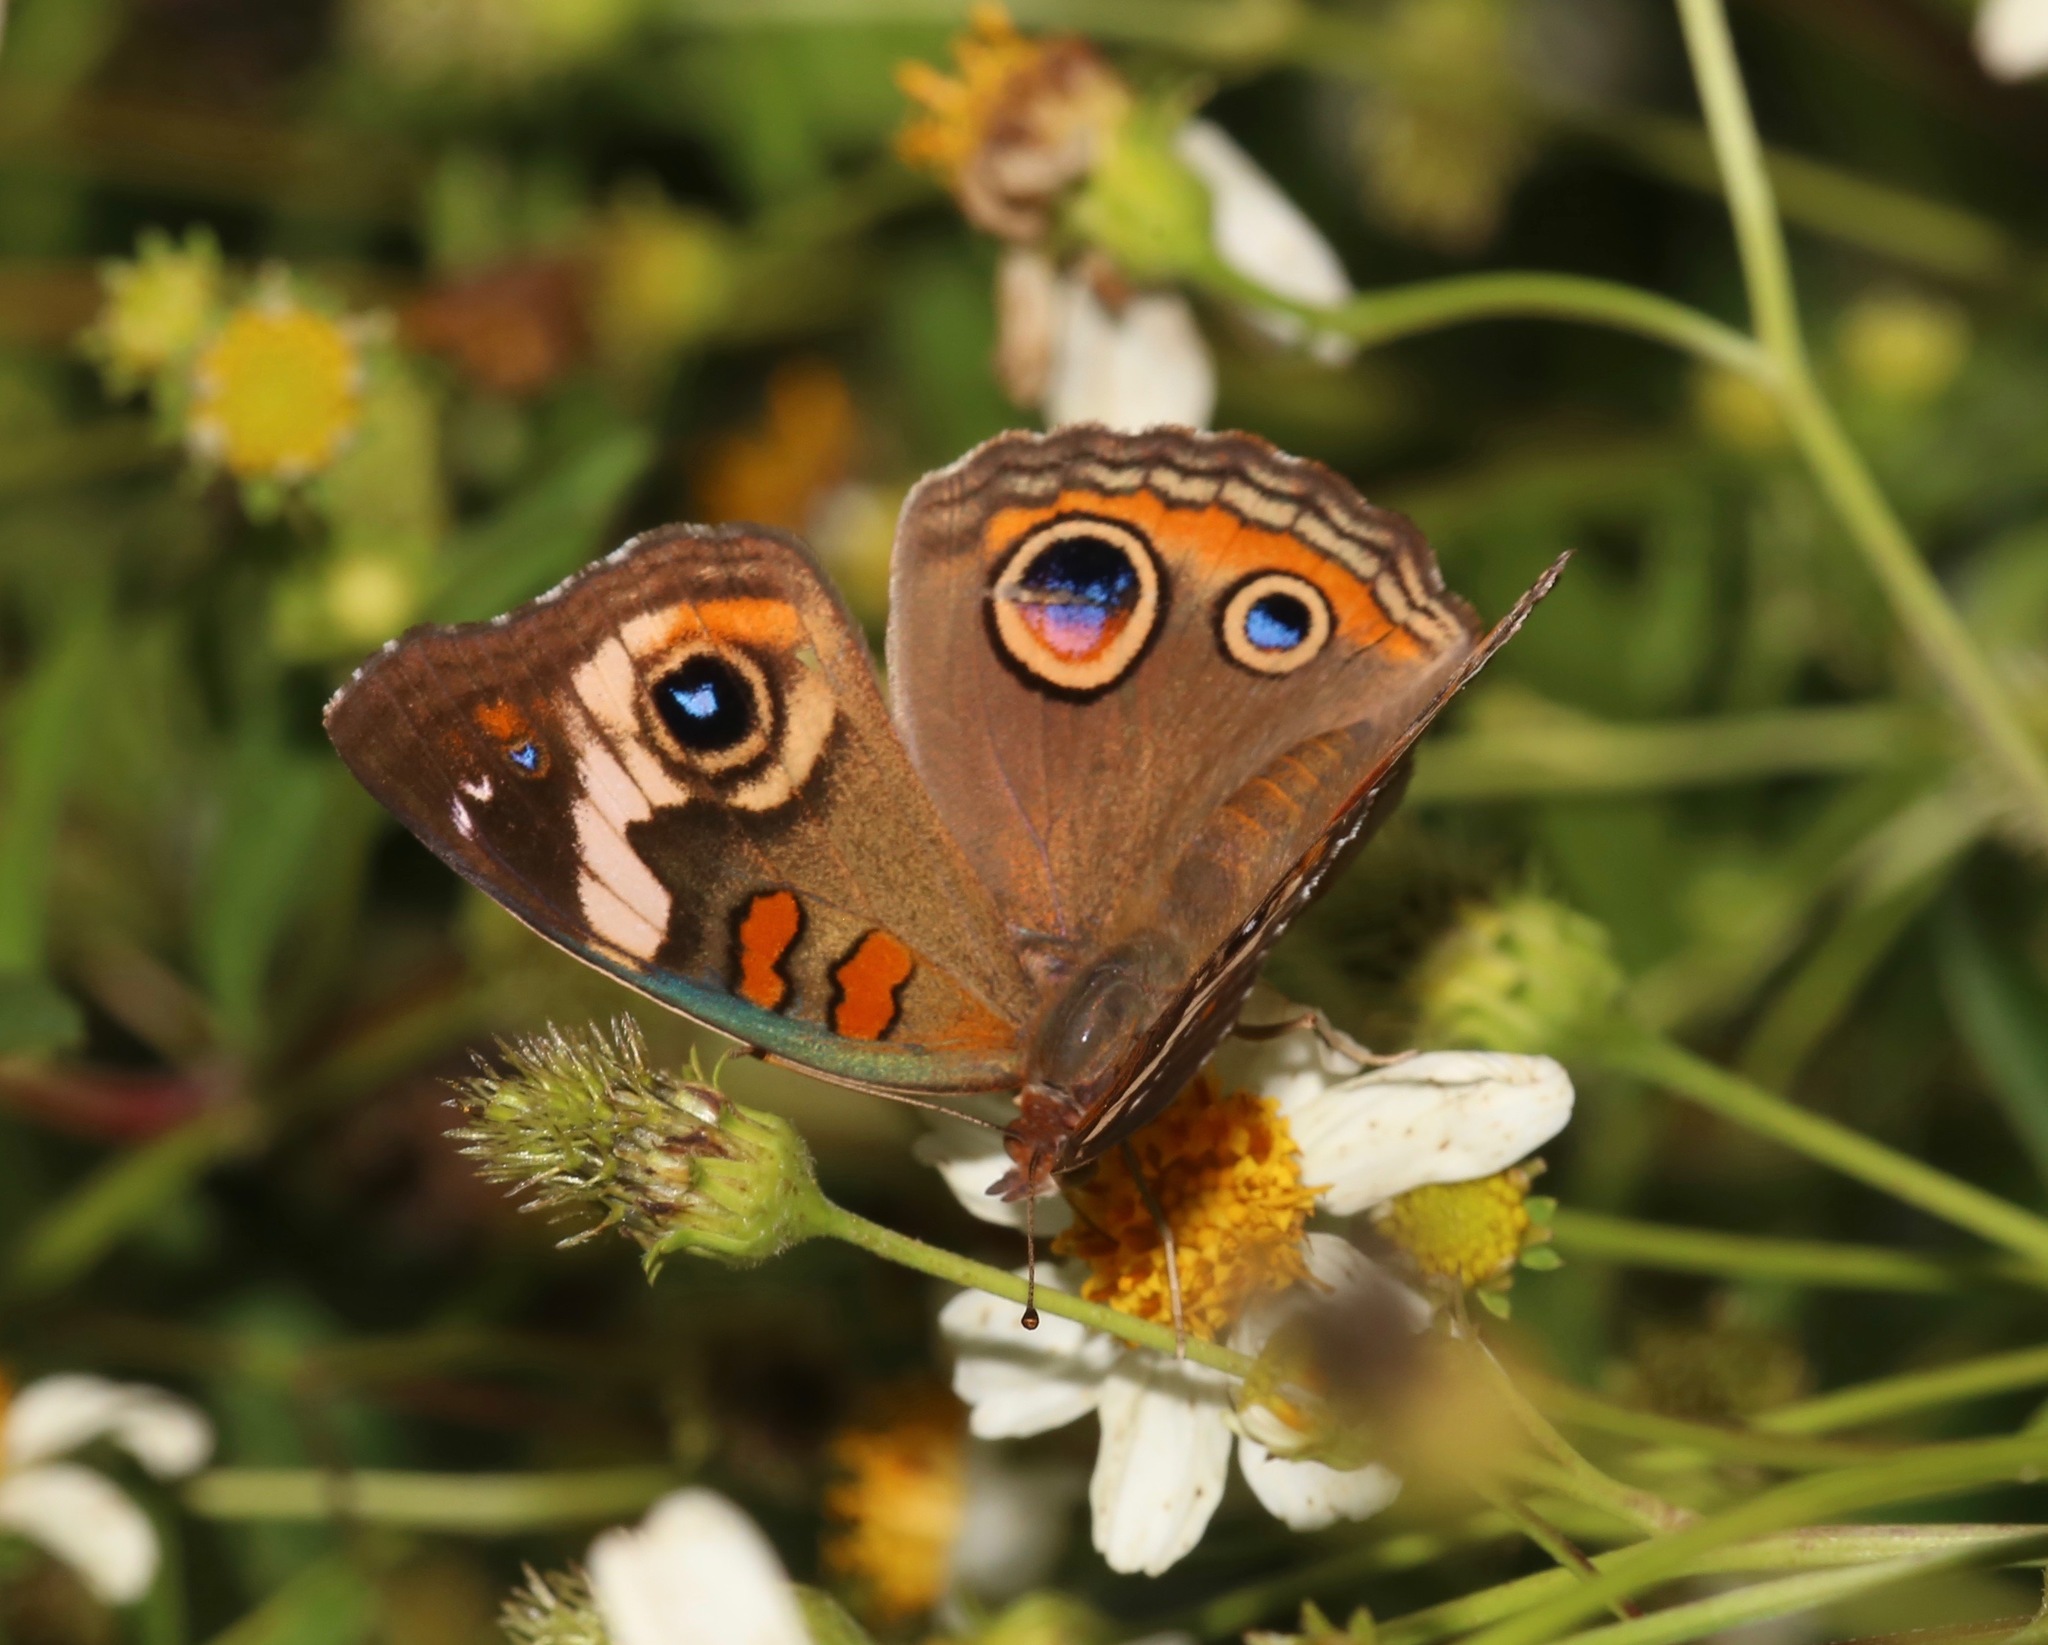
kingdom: Animalia
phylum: Arthropoda
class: Insecta
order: Lepidoptera
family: Nymphalidae
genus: Junonia
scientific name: Junonia coenia
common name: Common buckeye
